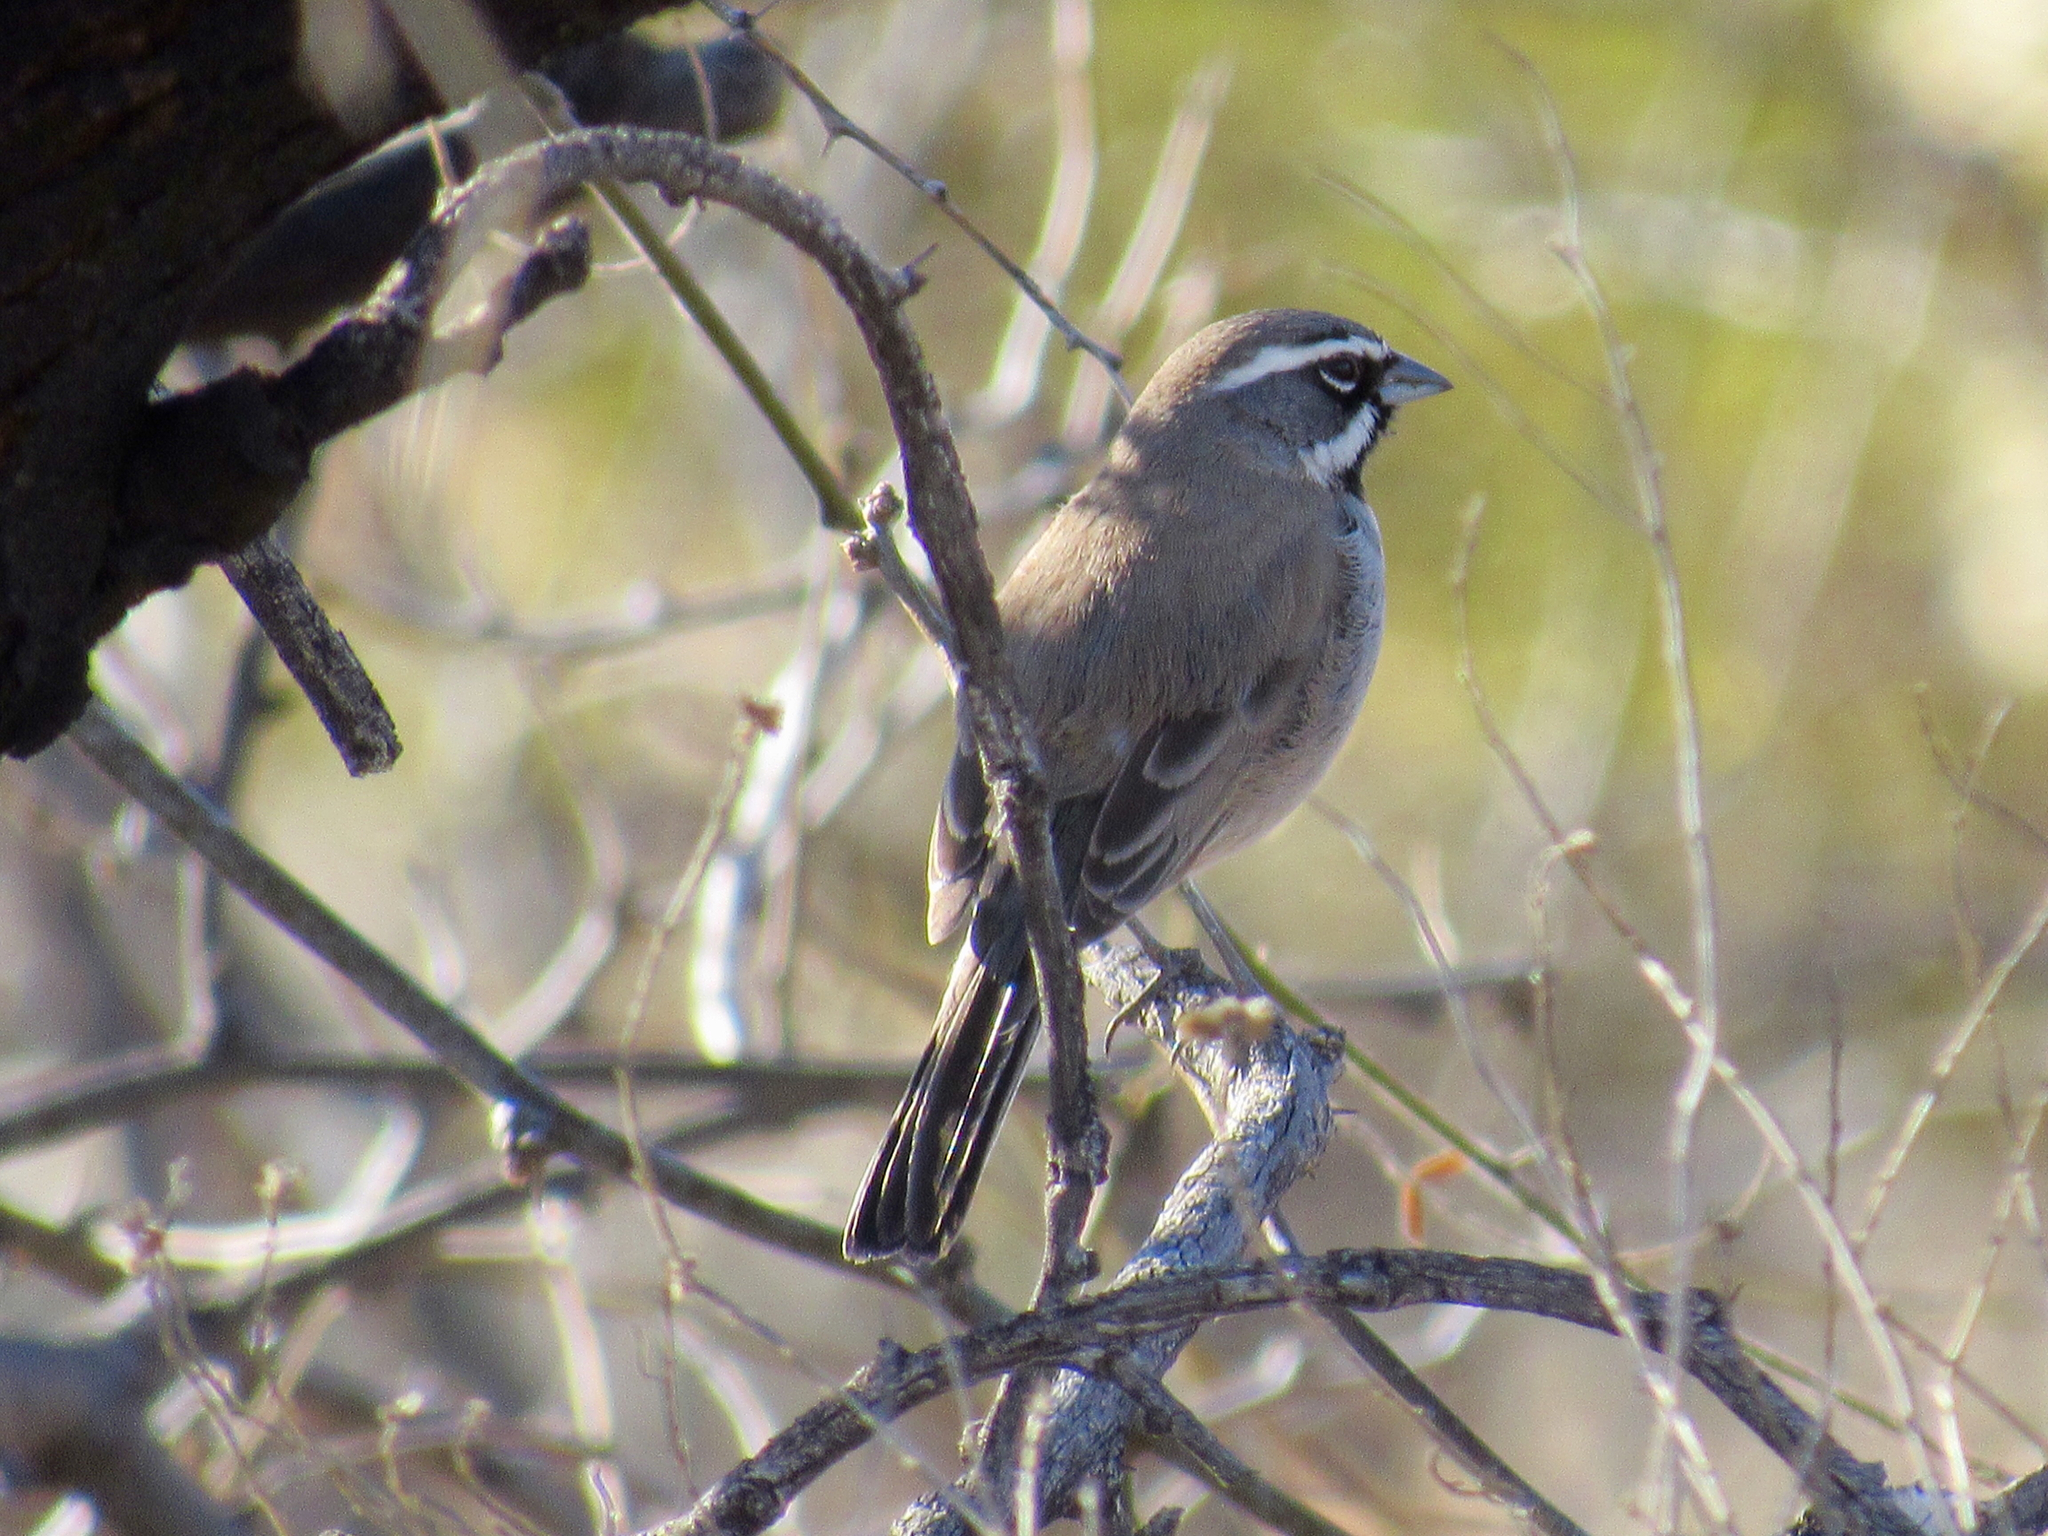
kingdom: Animalia
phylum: Chordata
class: Aves
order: Passeriformes
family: Passerellidae
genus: Amphispiza
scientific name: Amphispiza bilineata
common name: Black-throated sparrow
